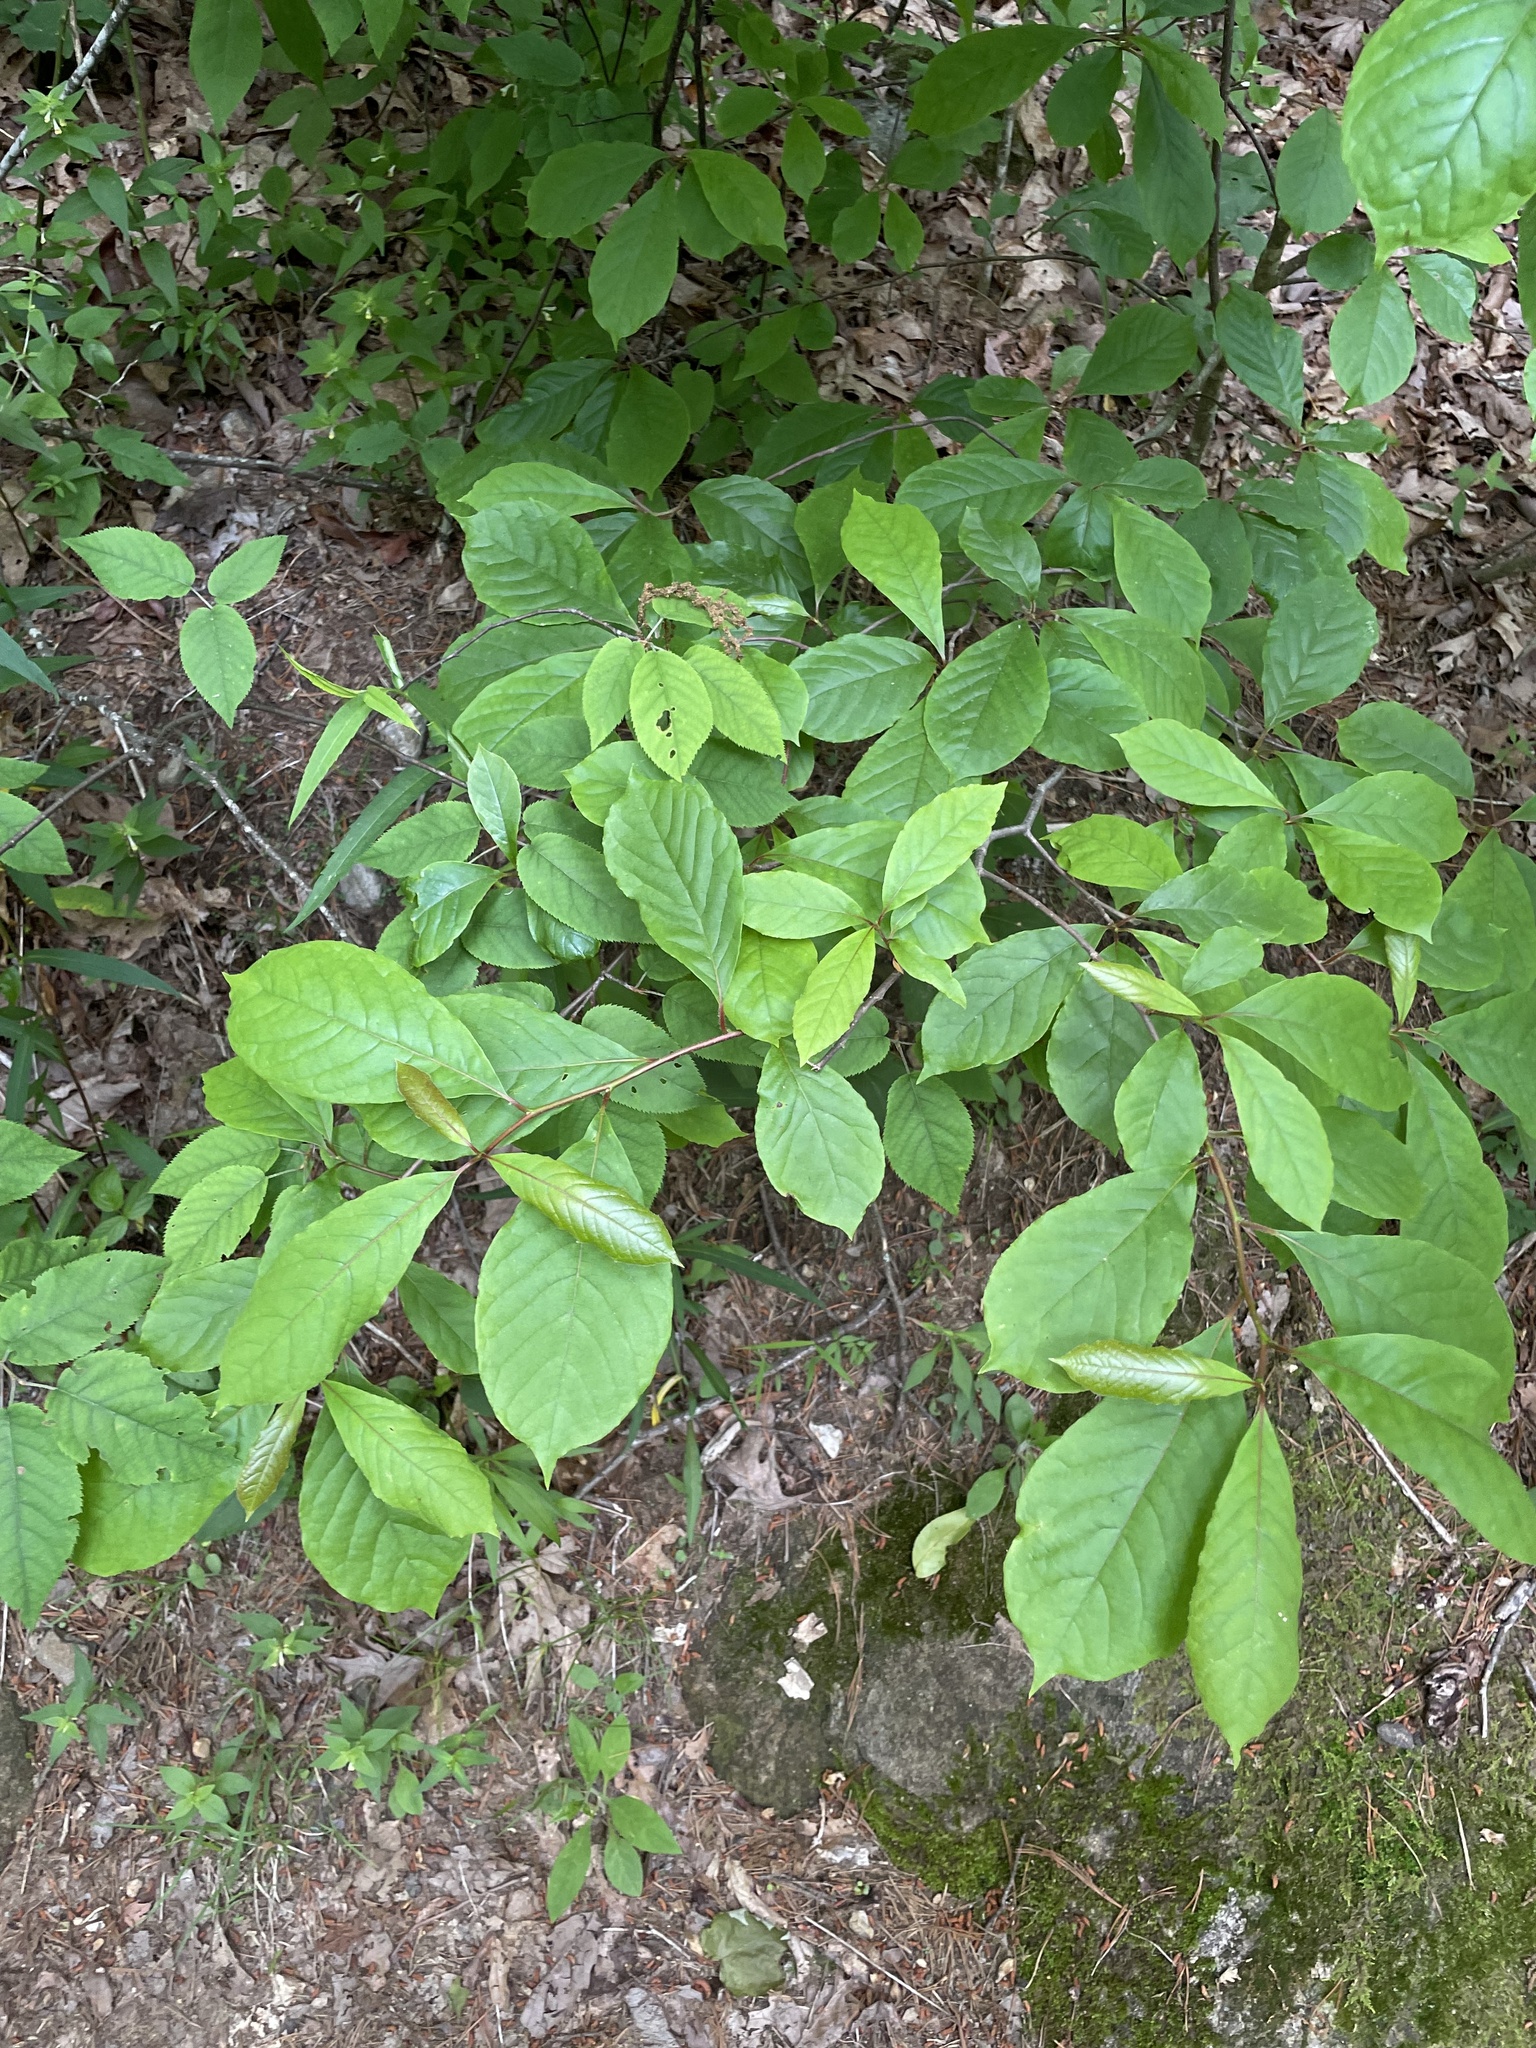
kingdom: Plantae
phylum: Tracheophyta
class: Magnoliopsida
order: Cornales
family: Nyssaceae
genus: Nyssa
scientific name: Nyssa sylvatica
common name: Black tupelo
